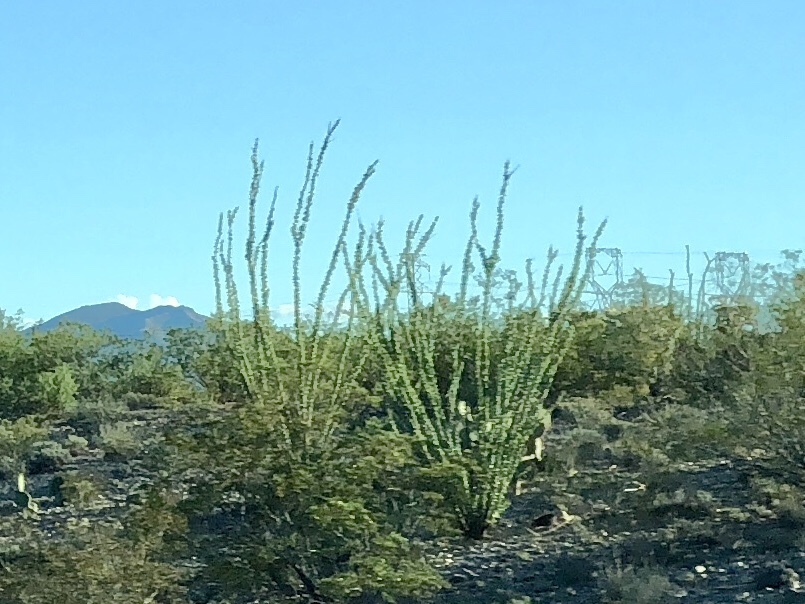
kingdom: Plantae
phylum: Tracheophyta
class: Magnoliopsida
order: Ericales
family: Fouquieriaceae
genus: Fouquieria
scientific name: Fouquieria splendens
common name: Vine-cactus
